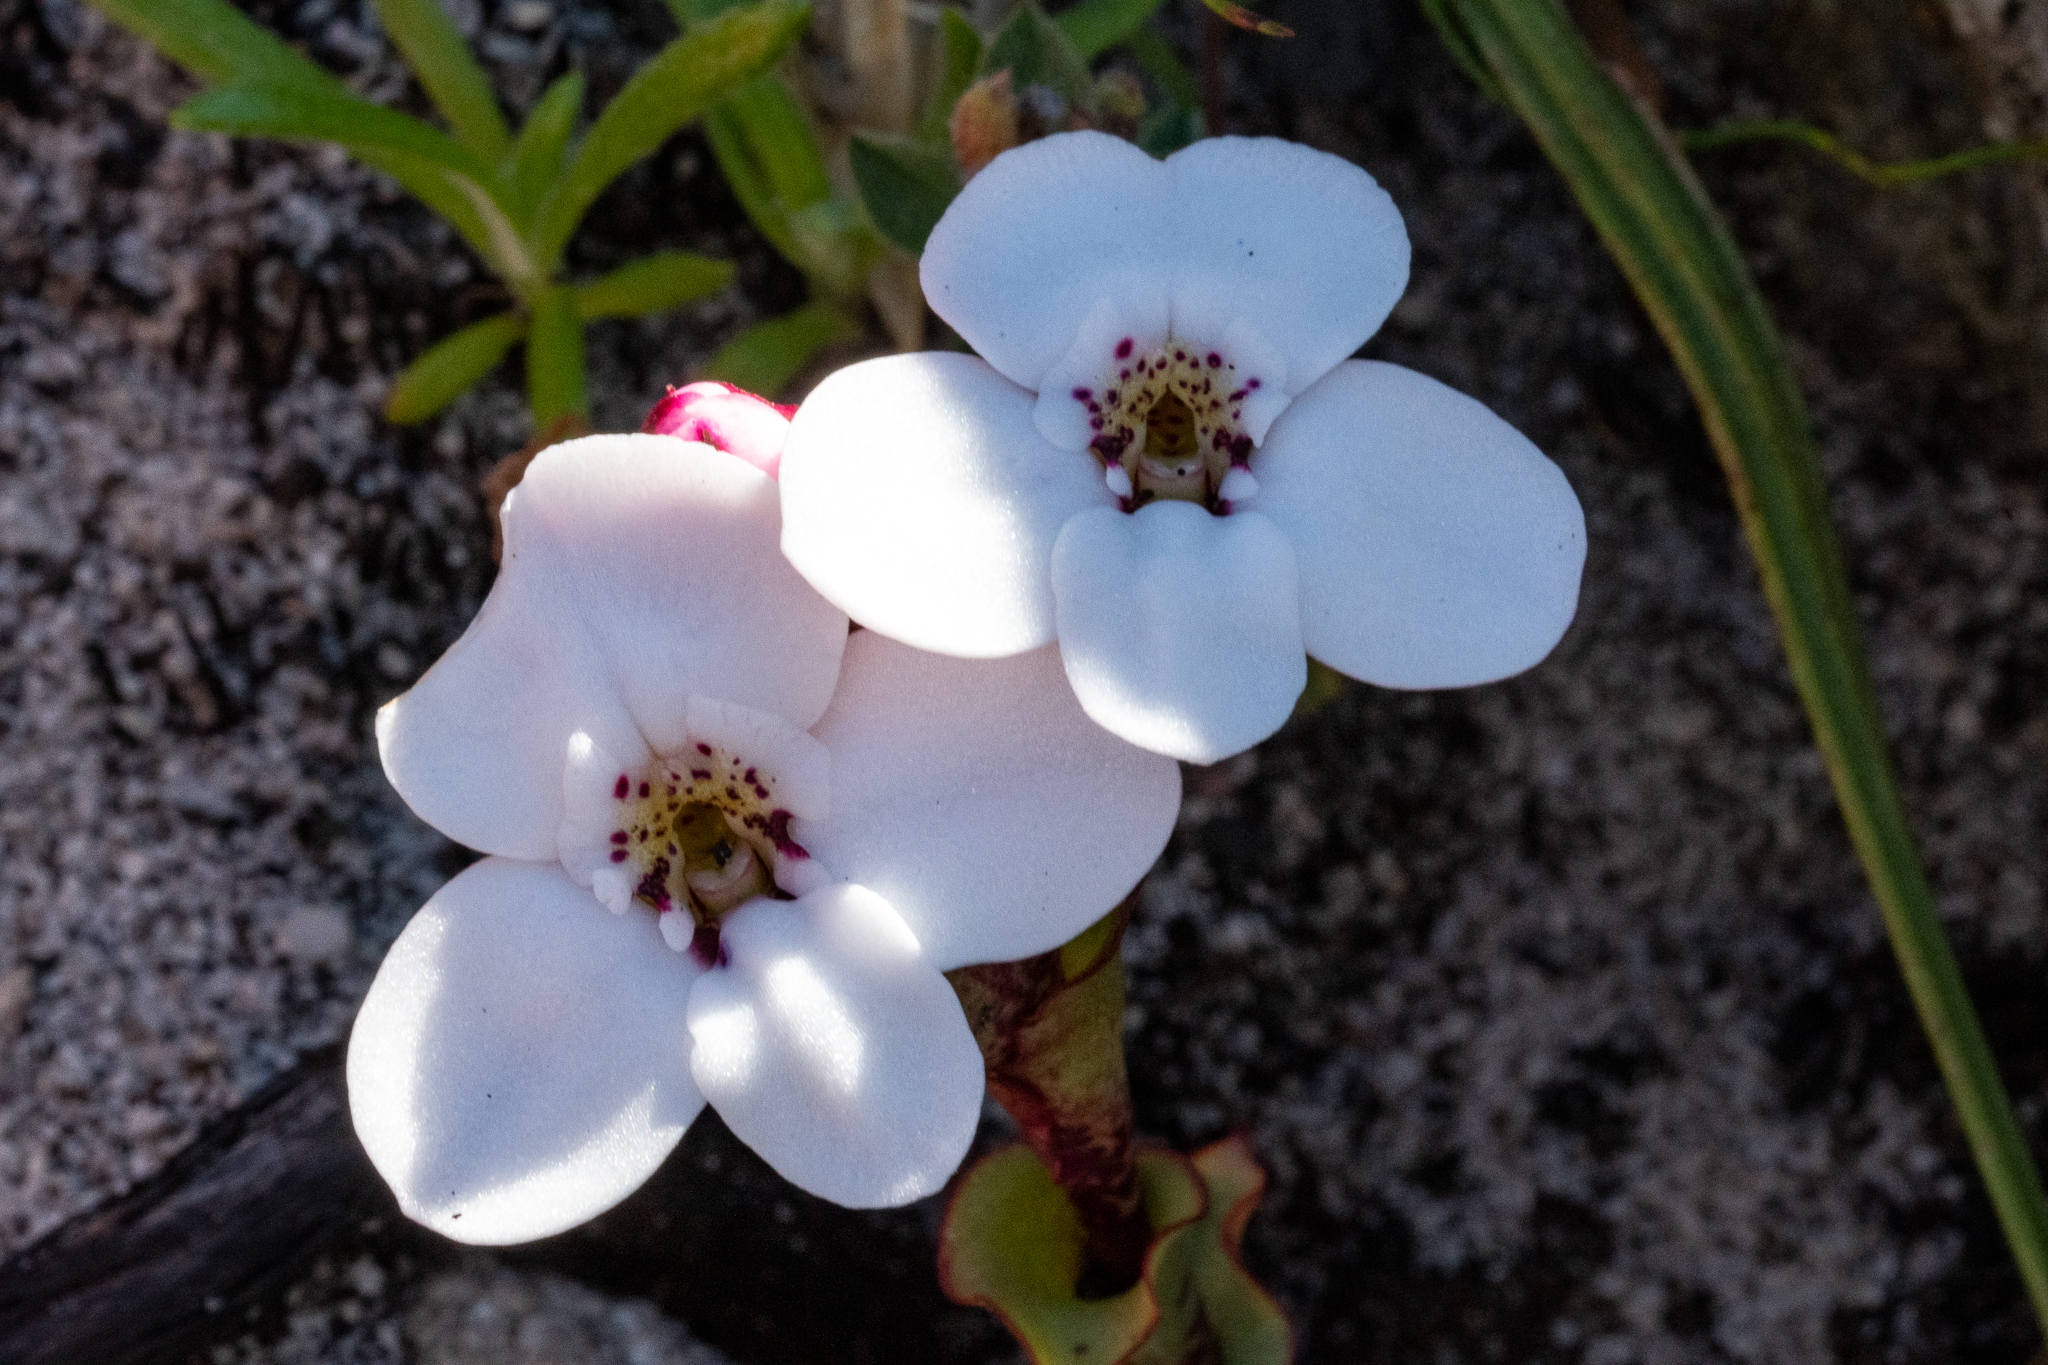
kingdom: Plantae
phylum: Tracheophyta
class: Liliopsida
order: Asparagales
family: Orchidaceae
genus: Disa
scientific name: Disa fasciata
